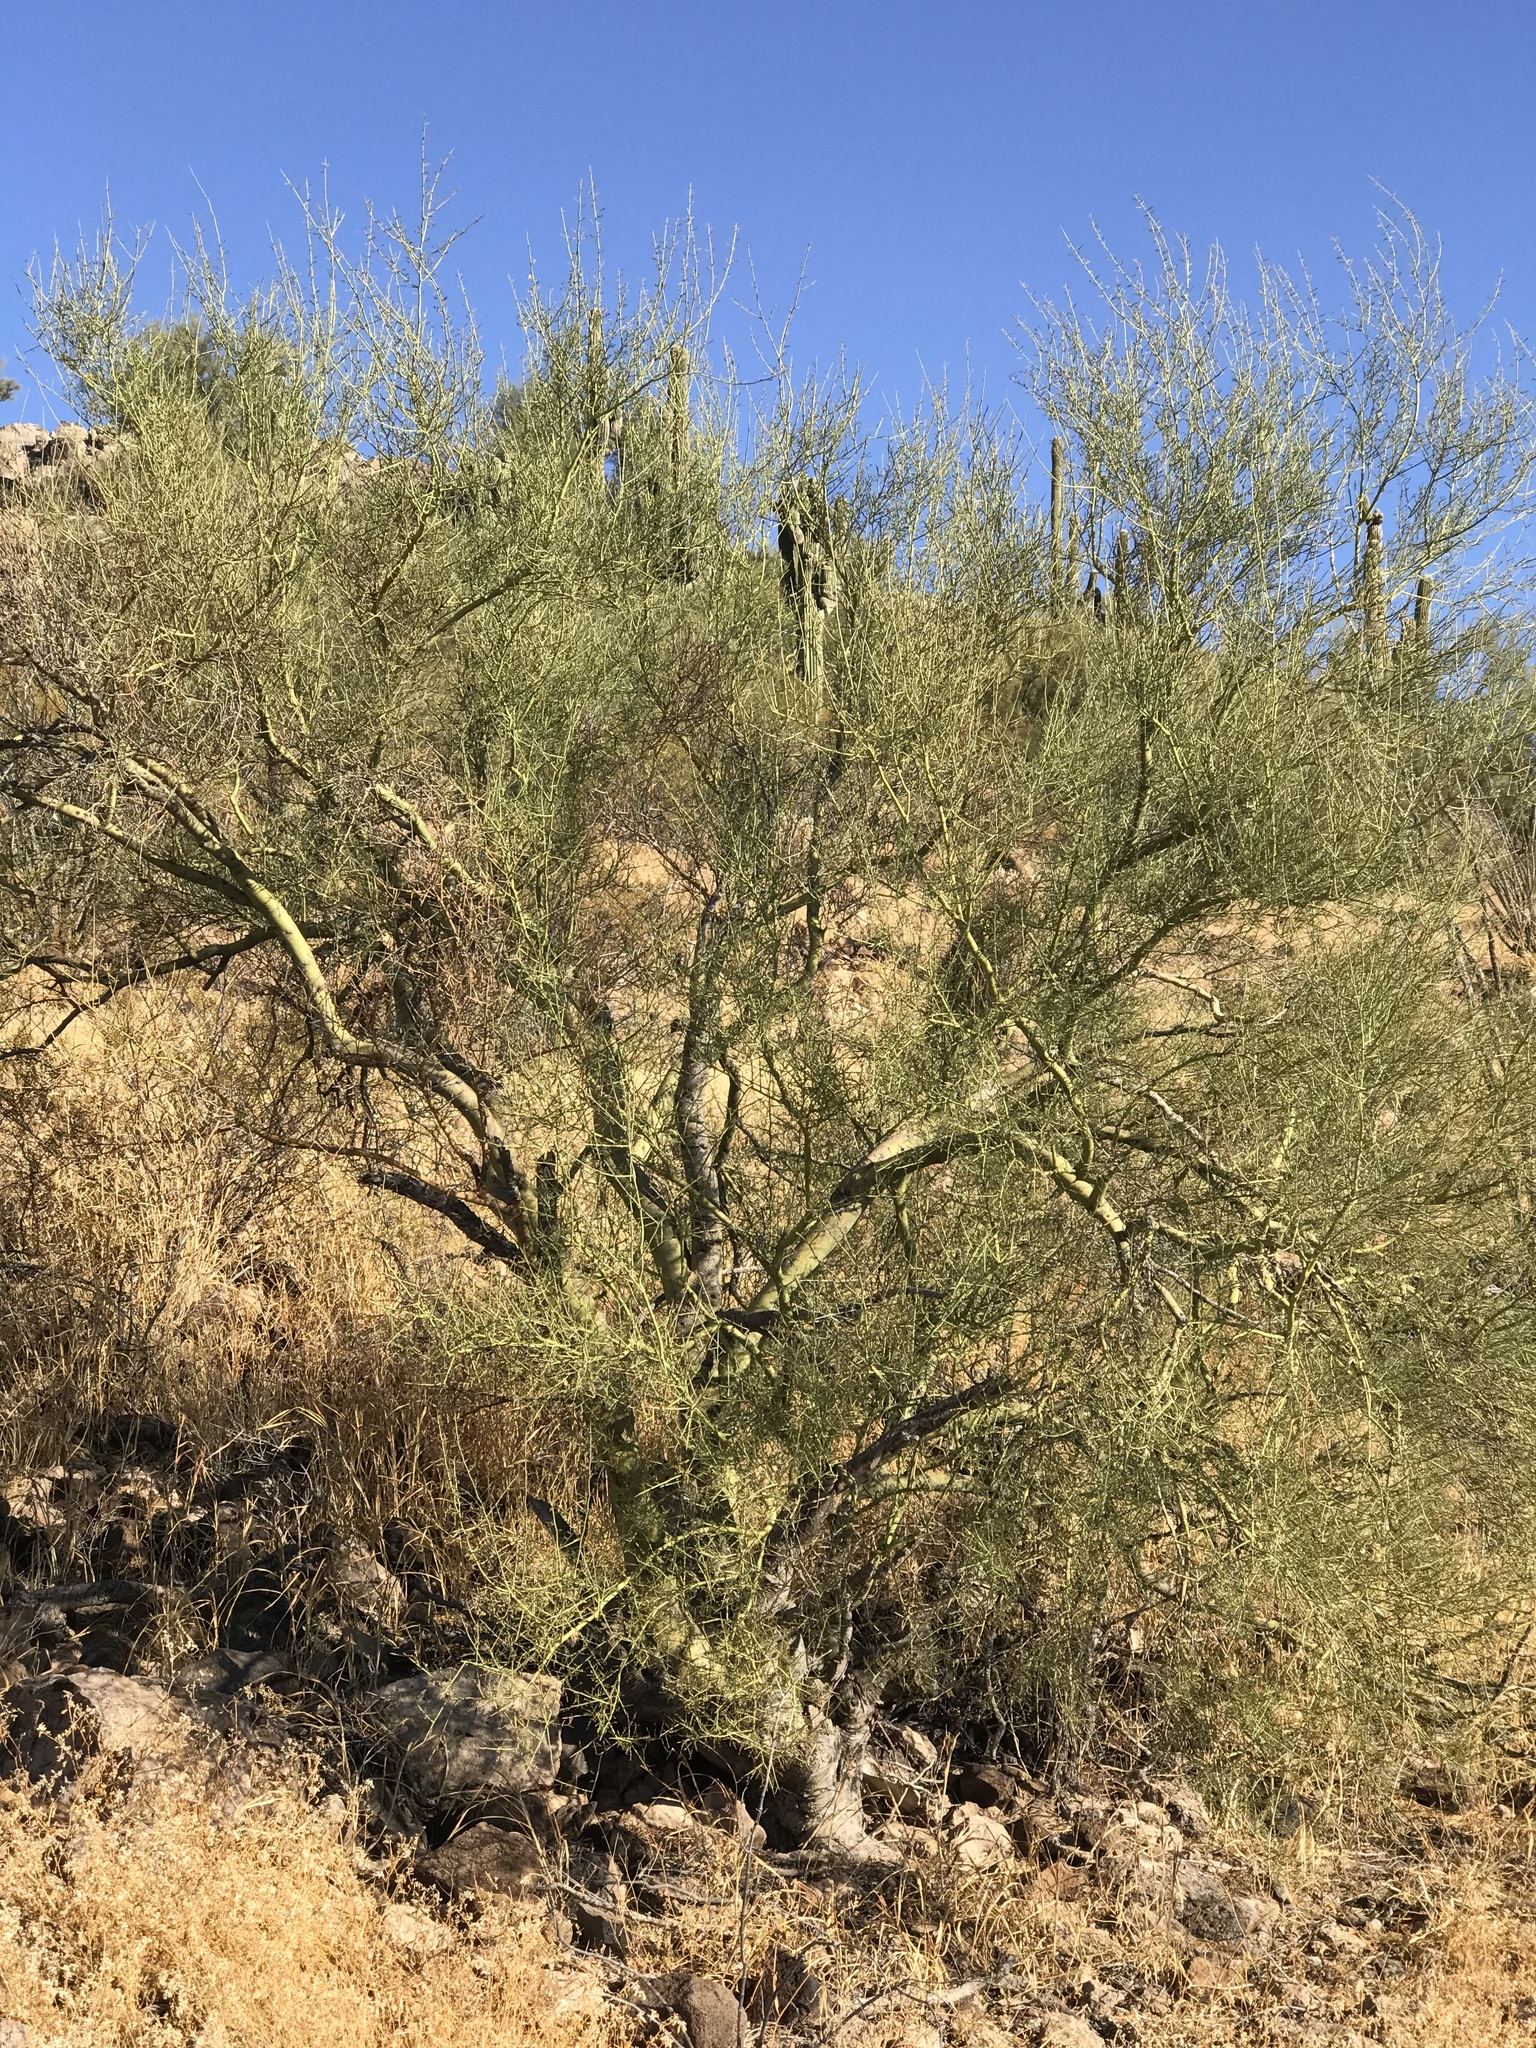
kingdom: Plantae
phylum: Tracheophyta
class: Magnoliopsida
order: Fabales
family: Fabaceae
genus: Parkinsonia
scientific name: Parkinsonia microphylla
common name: Yellow paloverde
